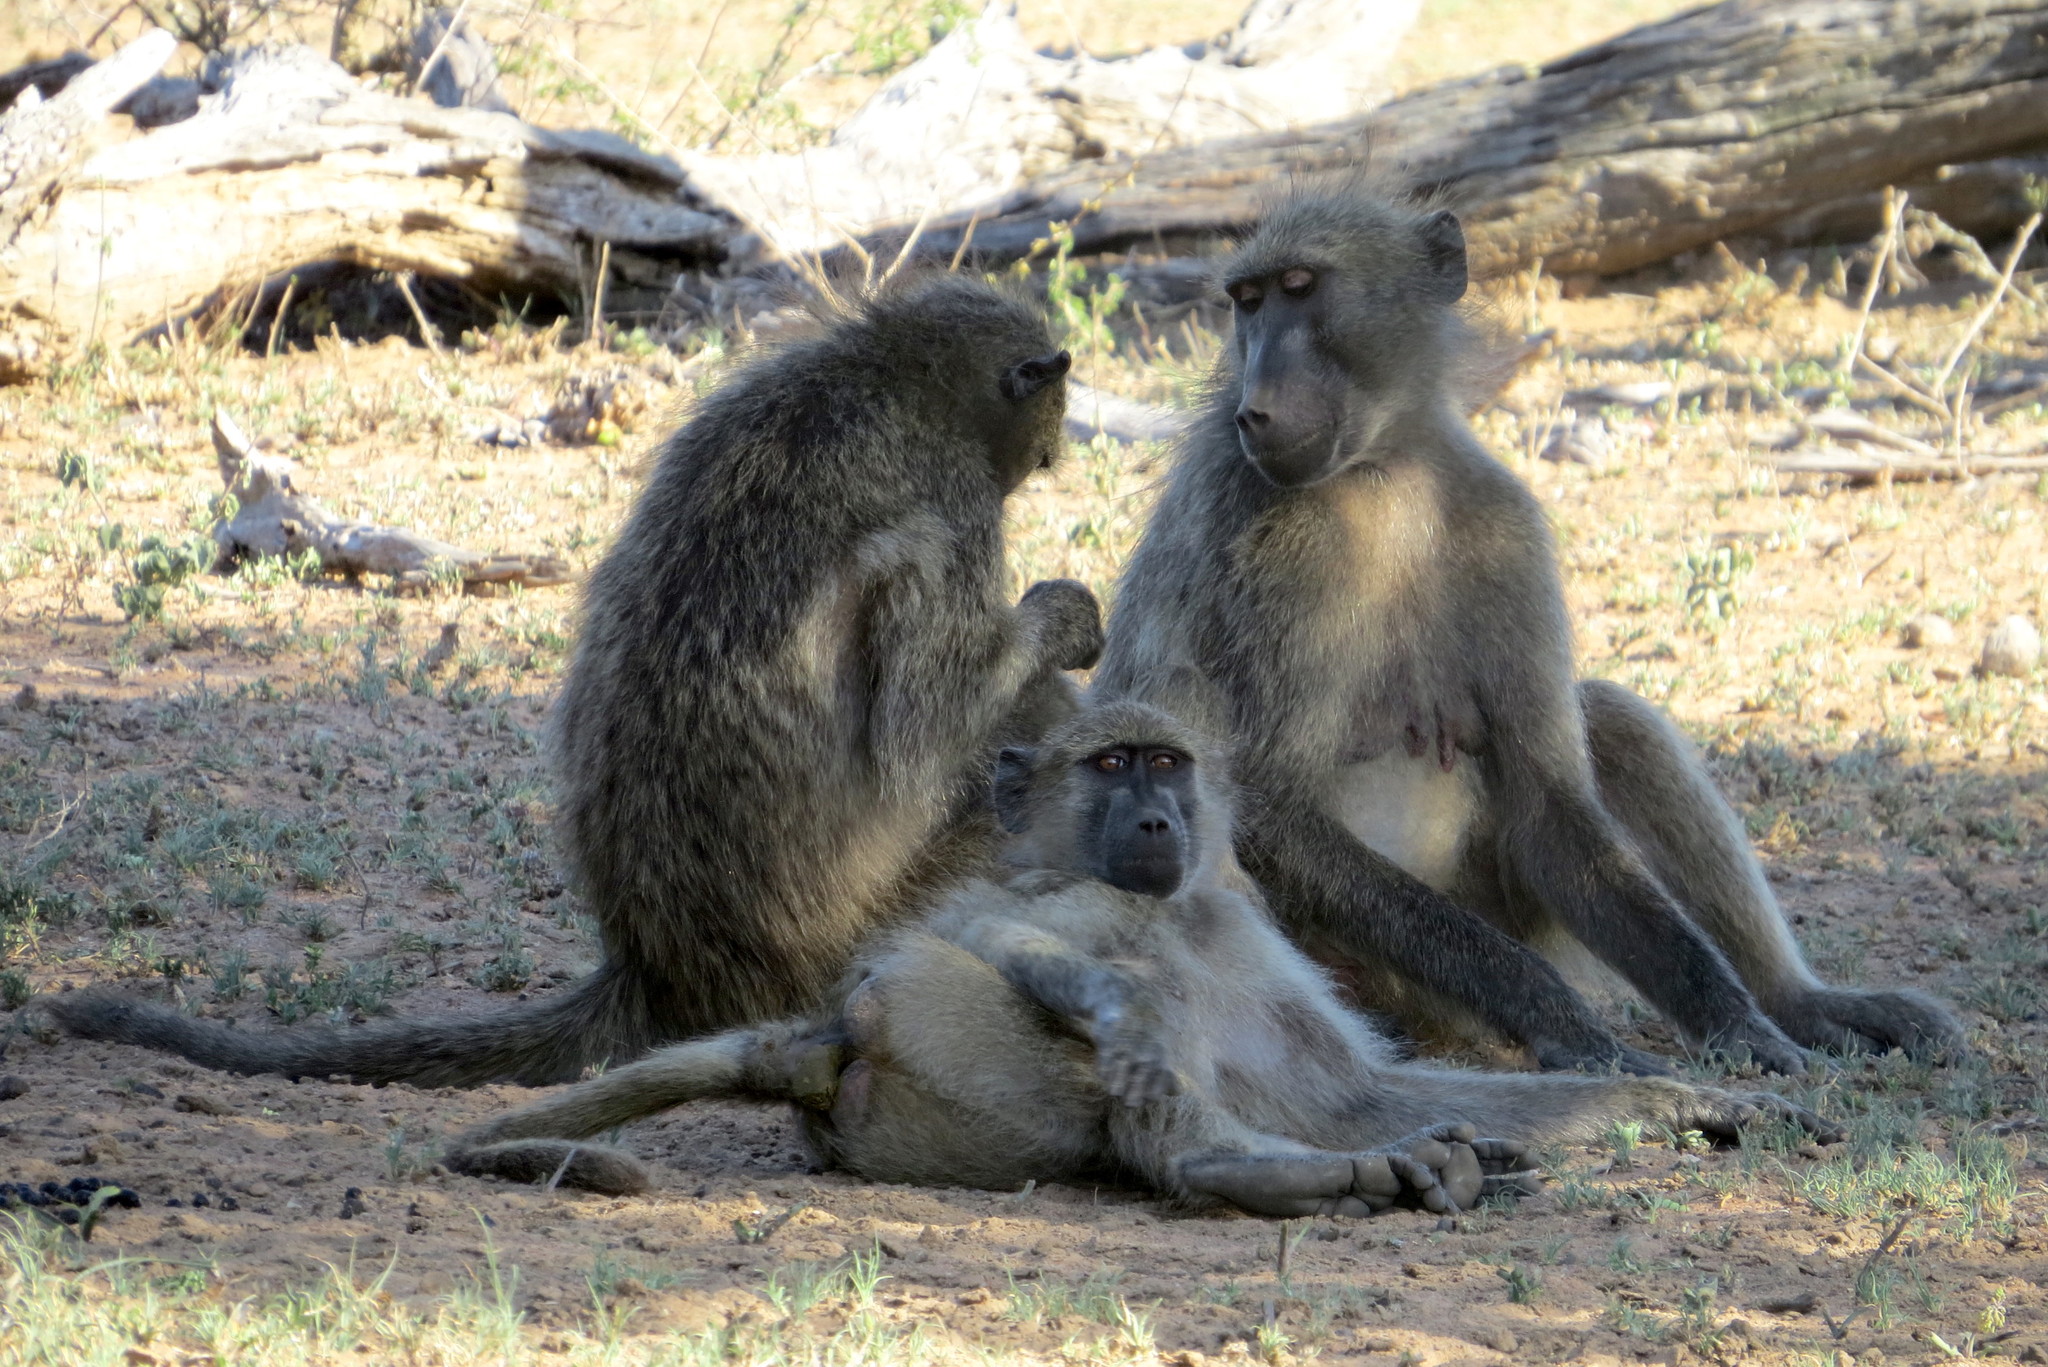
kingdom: Animalia
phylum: Chordata
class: Mammalia
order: Primates
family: Cercopithecidae
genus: Papio
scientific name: Papio ursinus
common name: Chacma baboon
